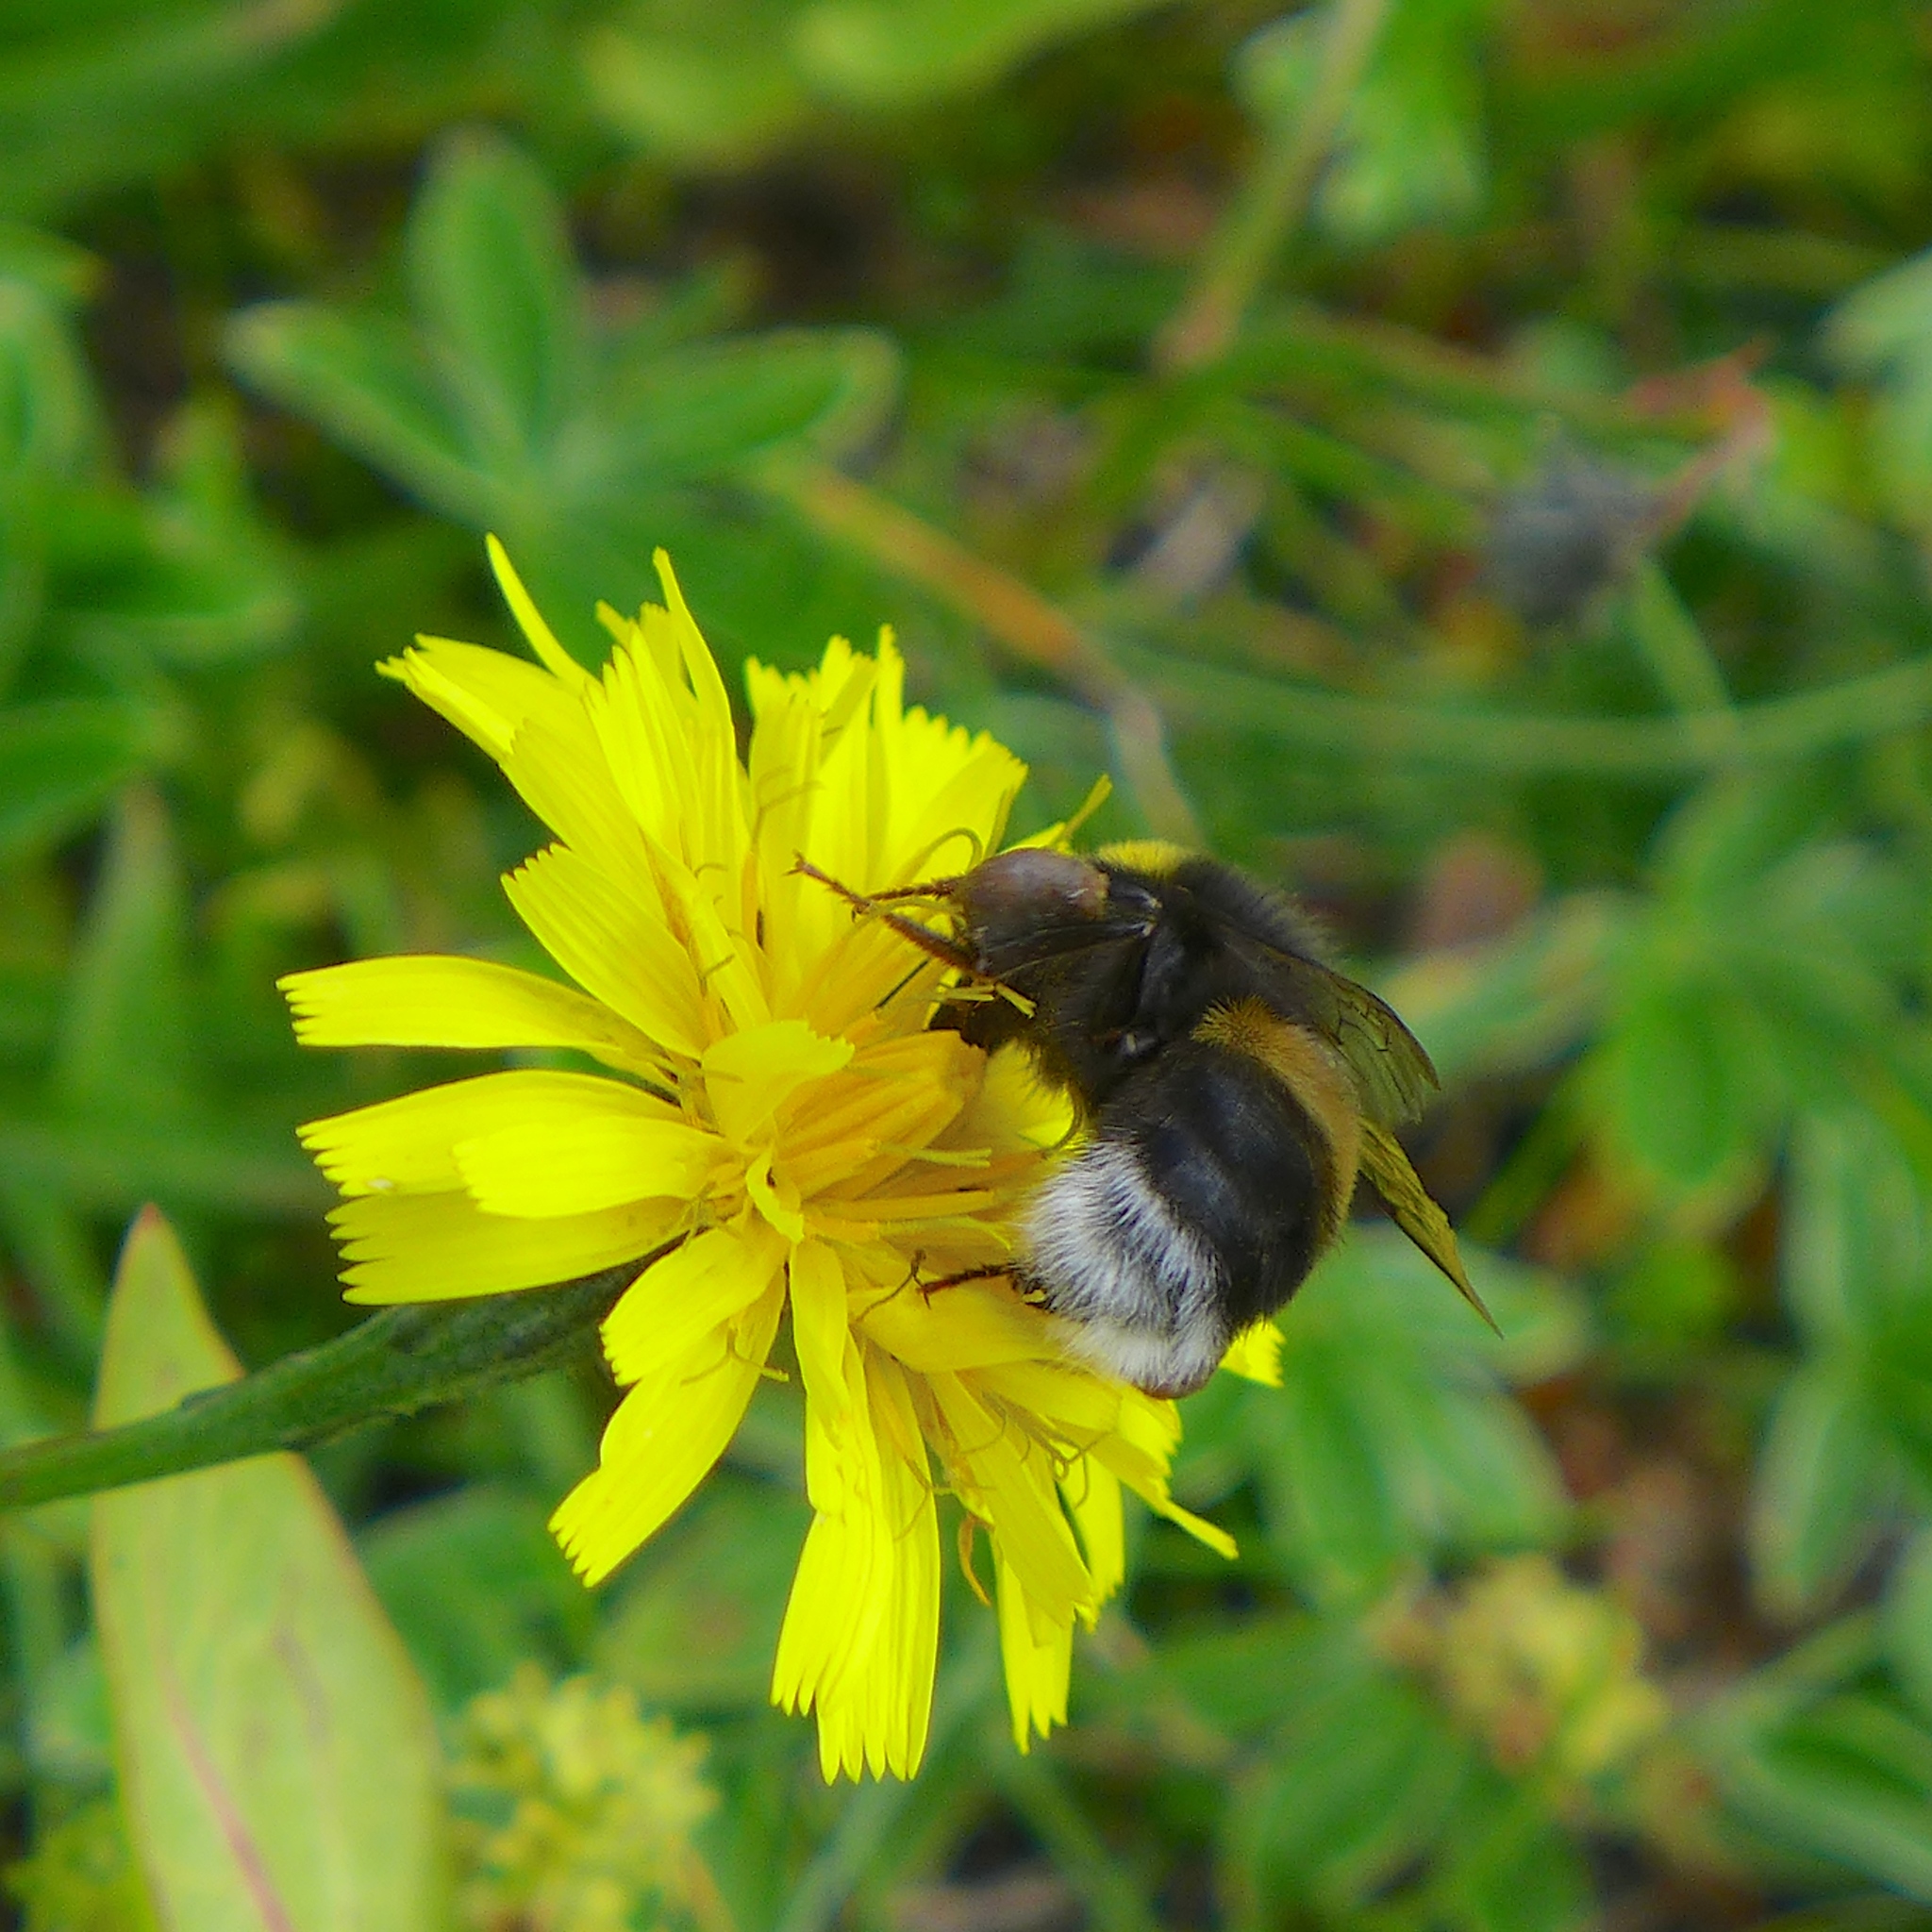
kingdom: Animalia
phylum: Arthropoda
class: Insecta
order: Hymenoptera
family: Apidae
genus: Bombus
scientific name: Bombus lucorum
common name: White-tailed bumblebee
